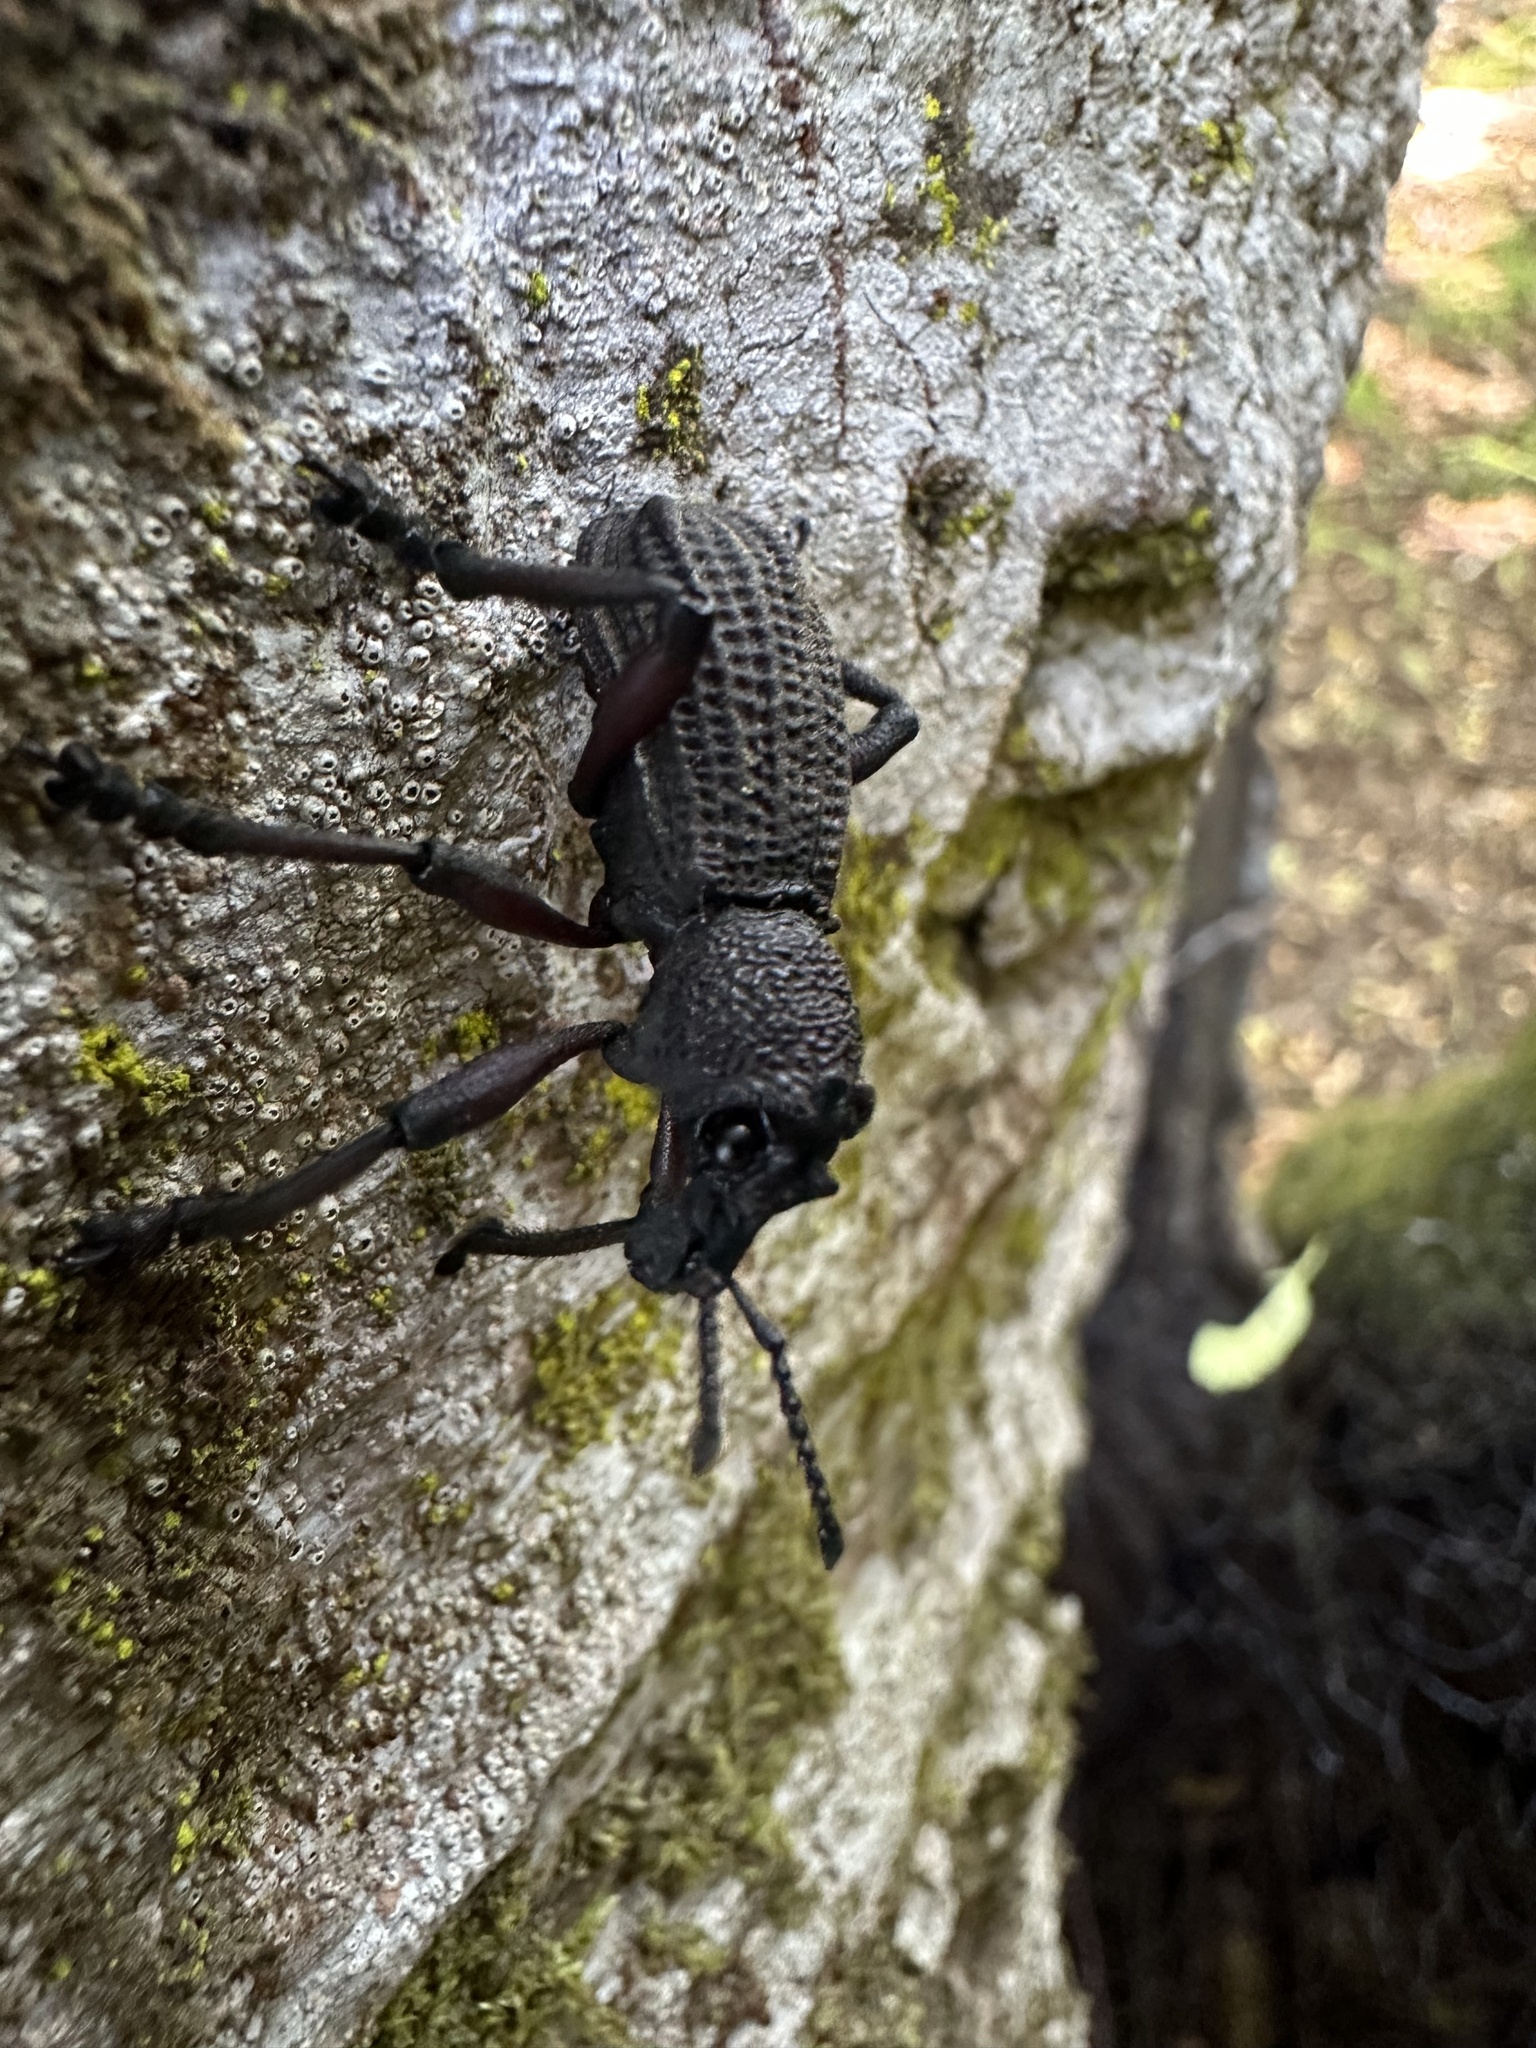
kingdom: Animalia
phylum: Arthropoda
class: Insecta
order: Coleoptera
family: Curculionidae
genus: Aegorhinus
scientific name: Aegorhinus
